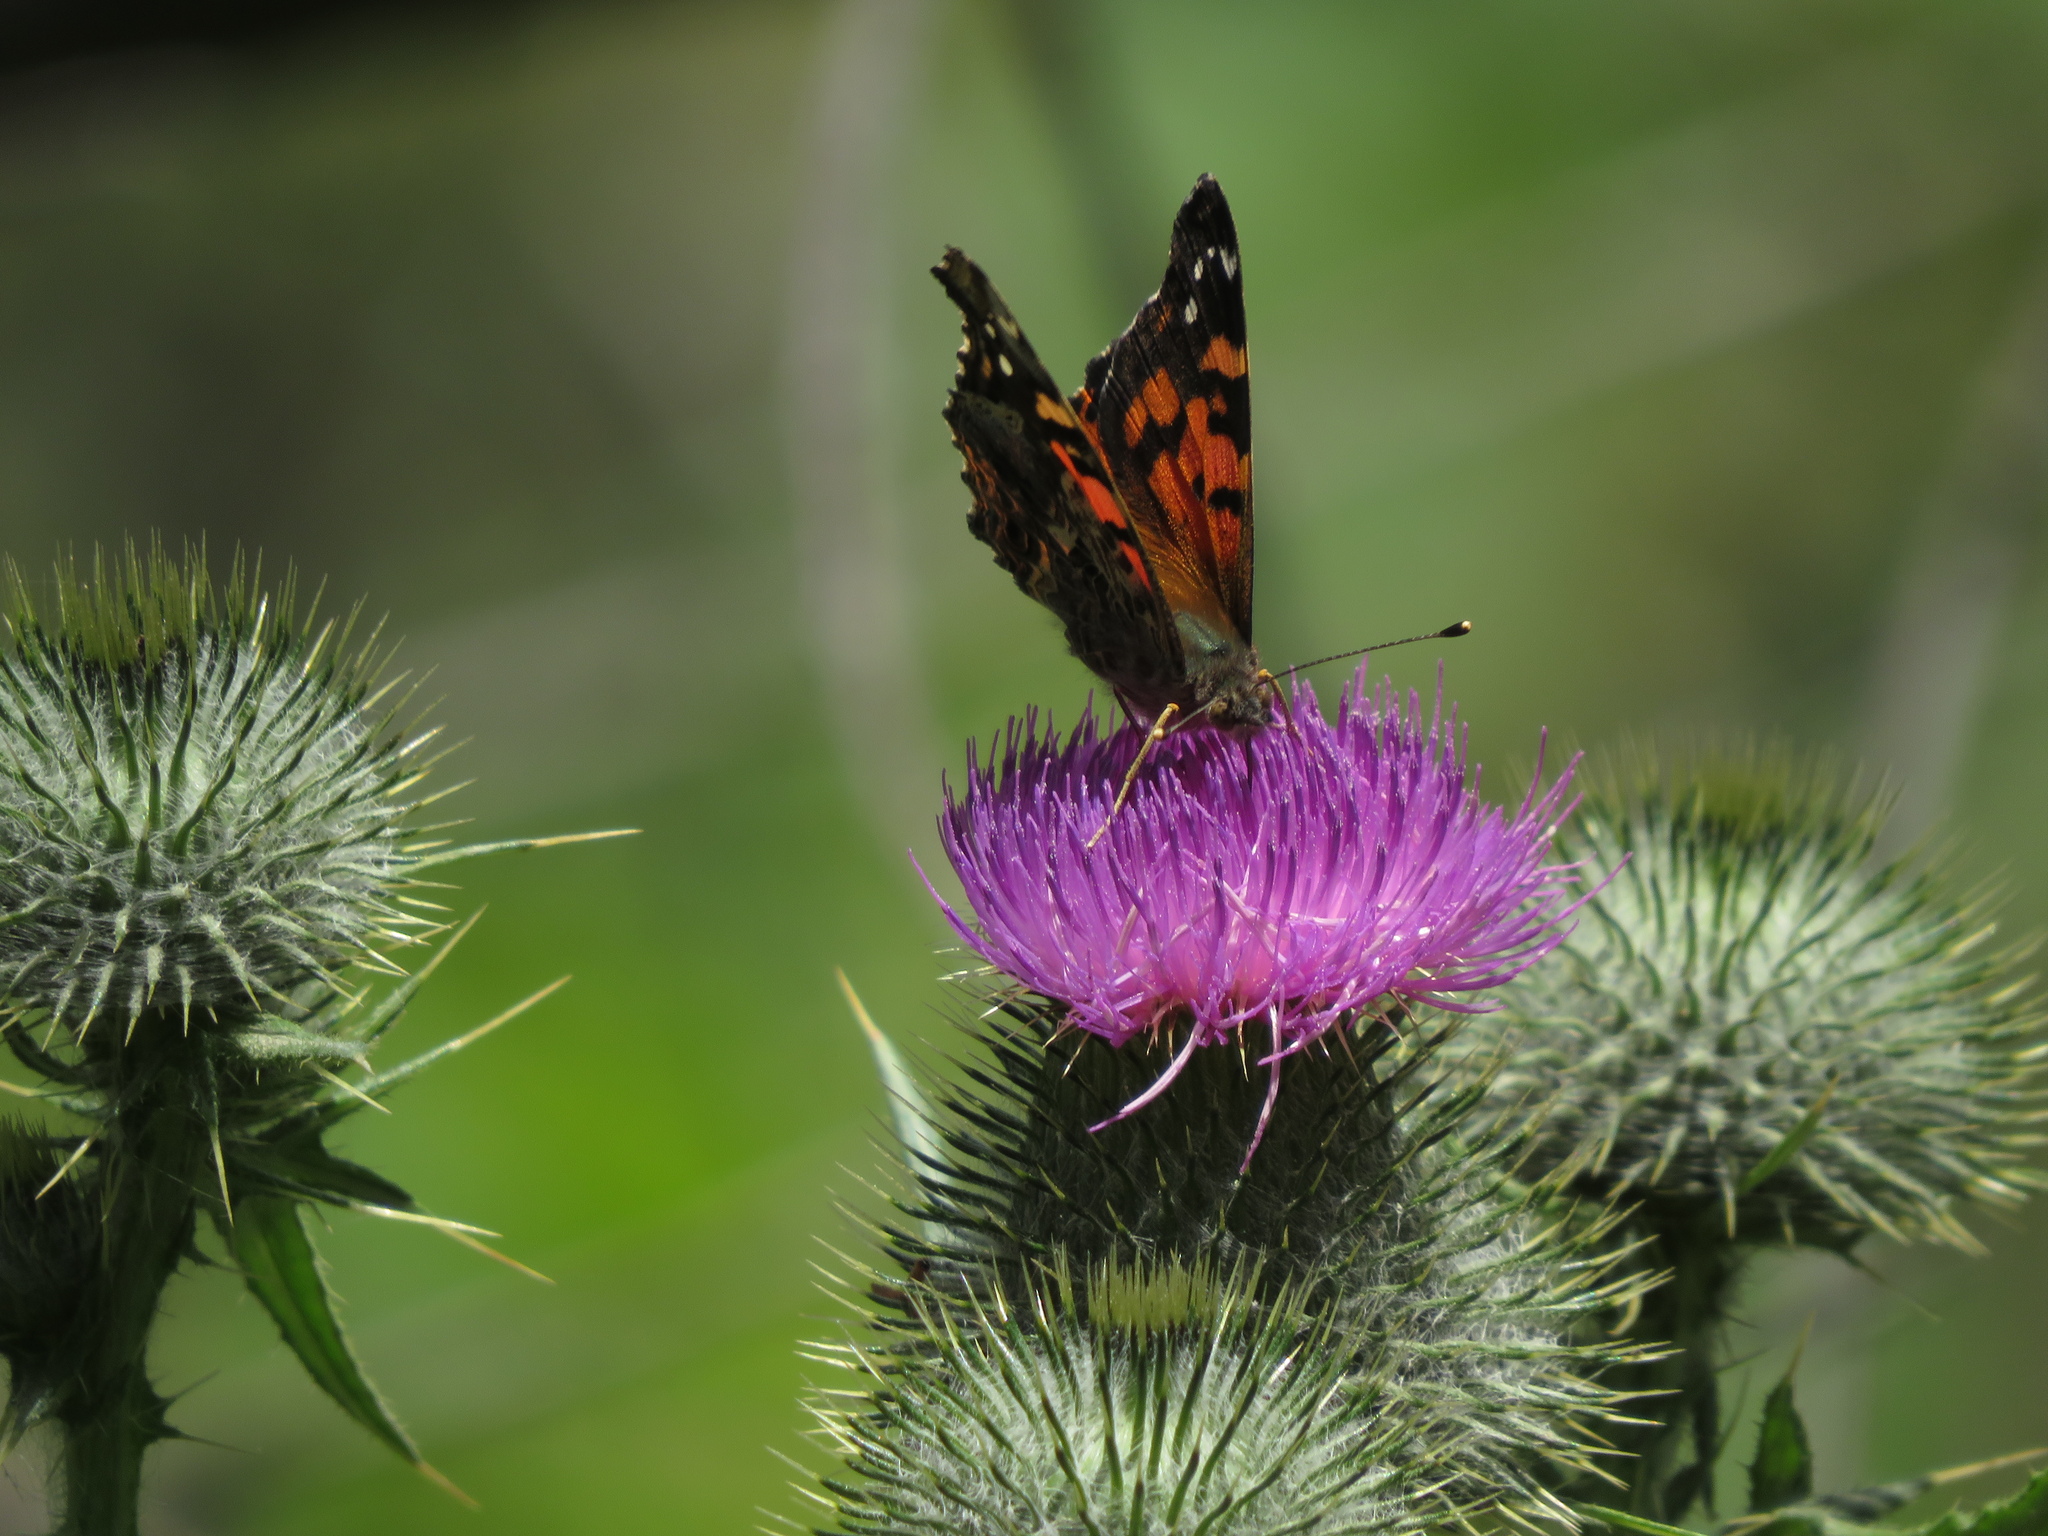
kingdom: Animalia
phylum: Arthropoda
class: Insecta
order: Lepidoptera
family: Nymphalidae
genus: Vanessa
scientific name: Vanessa carye
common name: Subtropical lady
